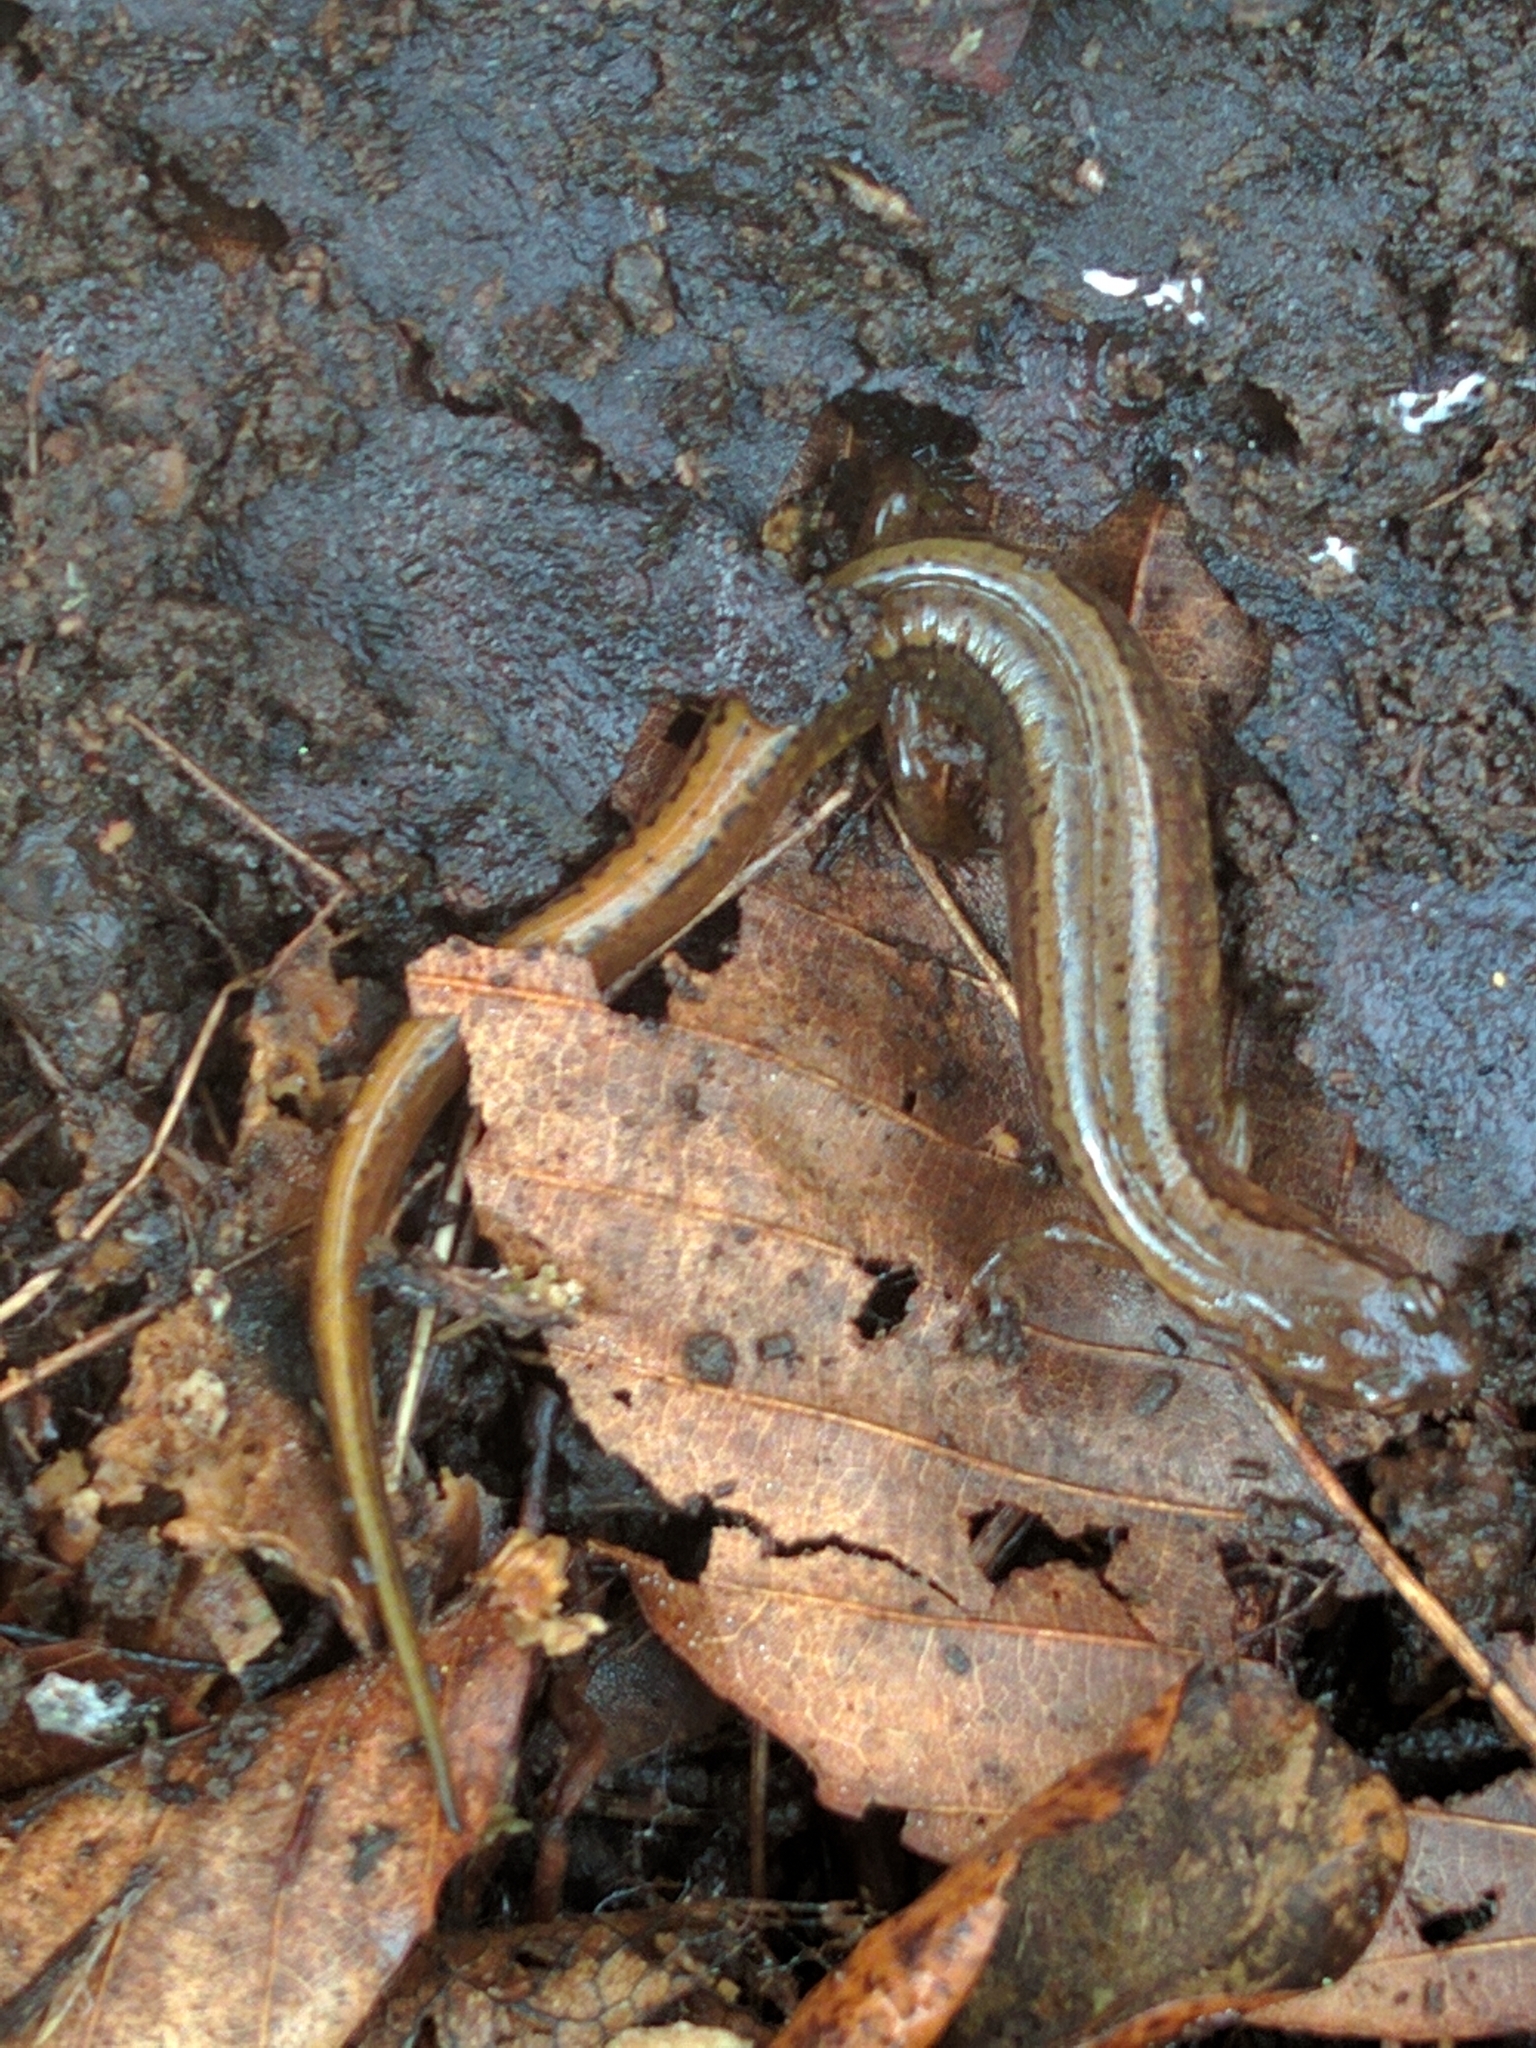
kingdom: Animalia
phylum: Chordata
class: Amphibia
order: Caudata
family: Plethodontidae
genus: Eurycea
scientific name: Eurycea bislineata
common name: Northern two-lined salamander
